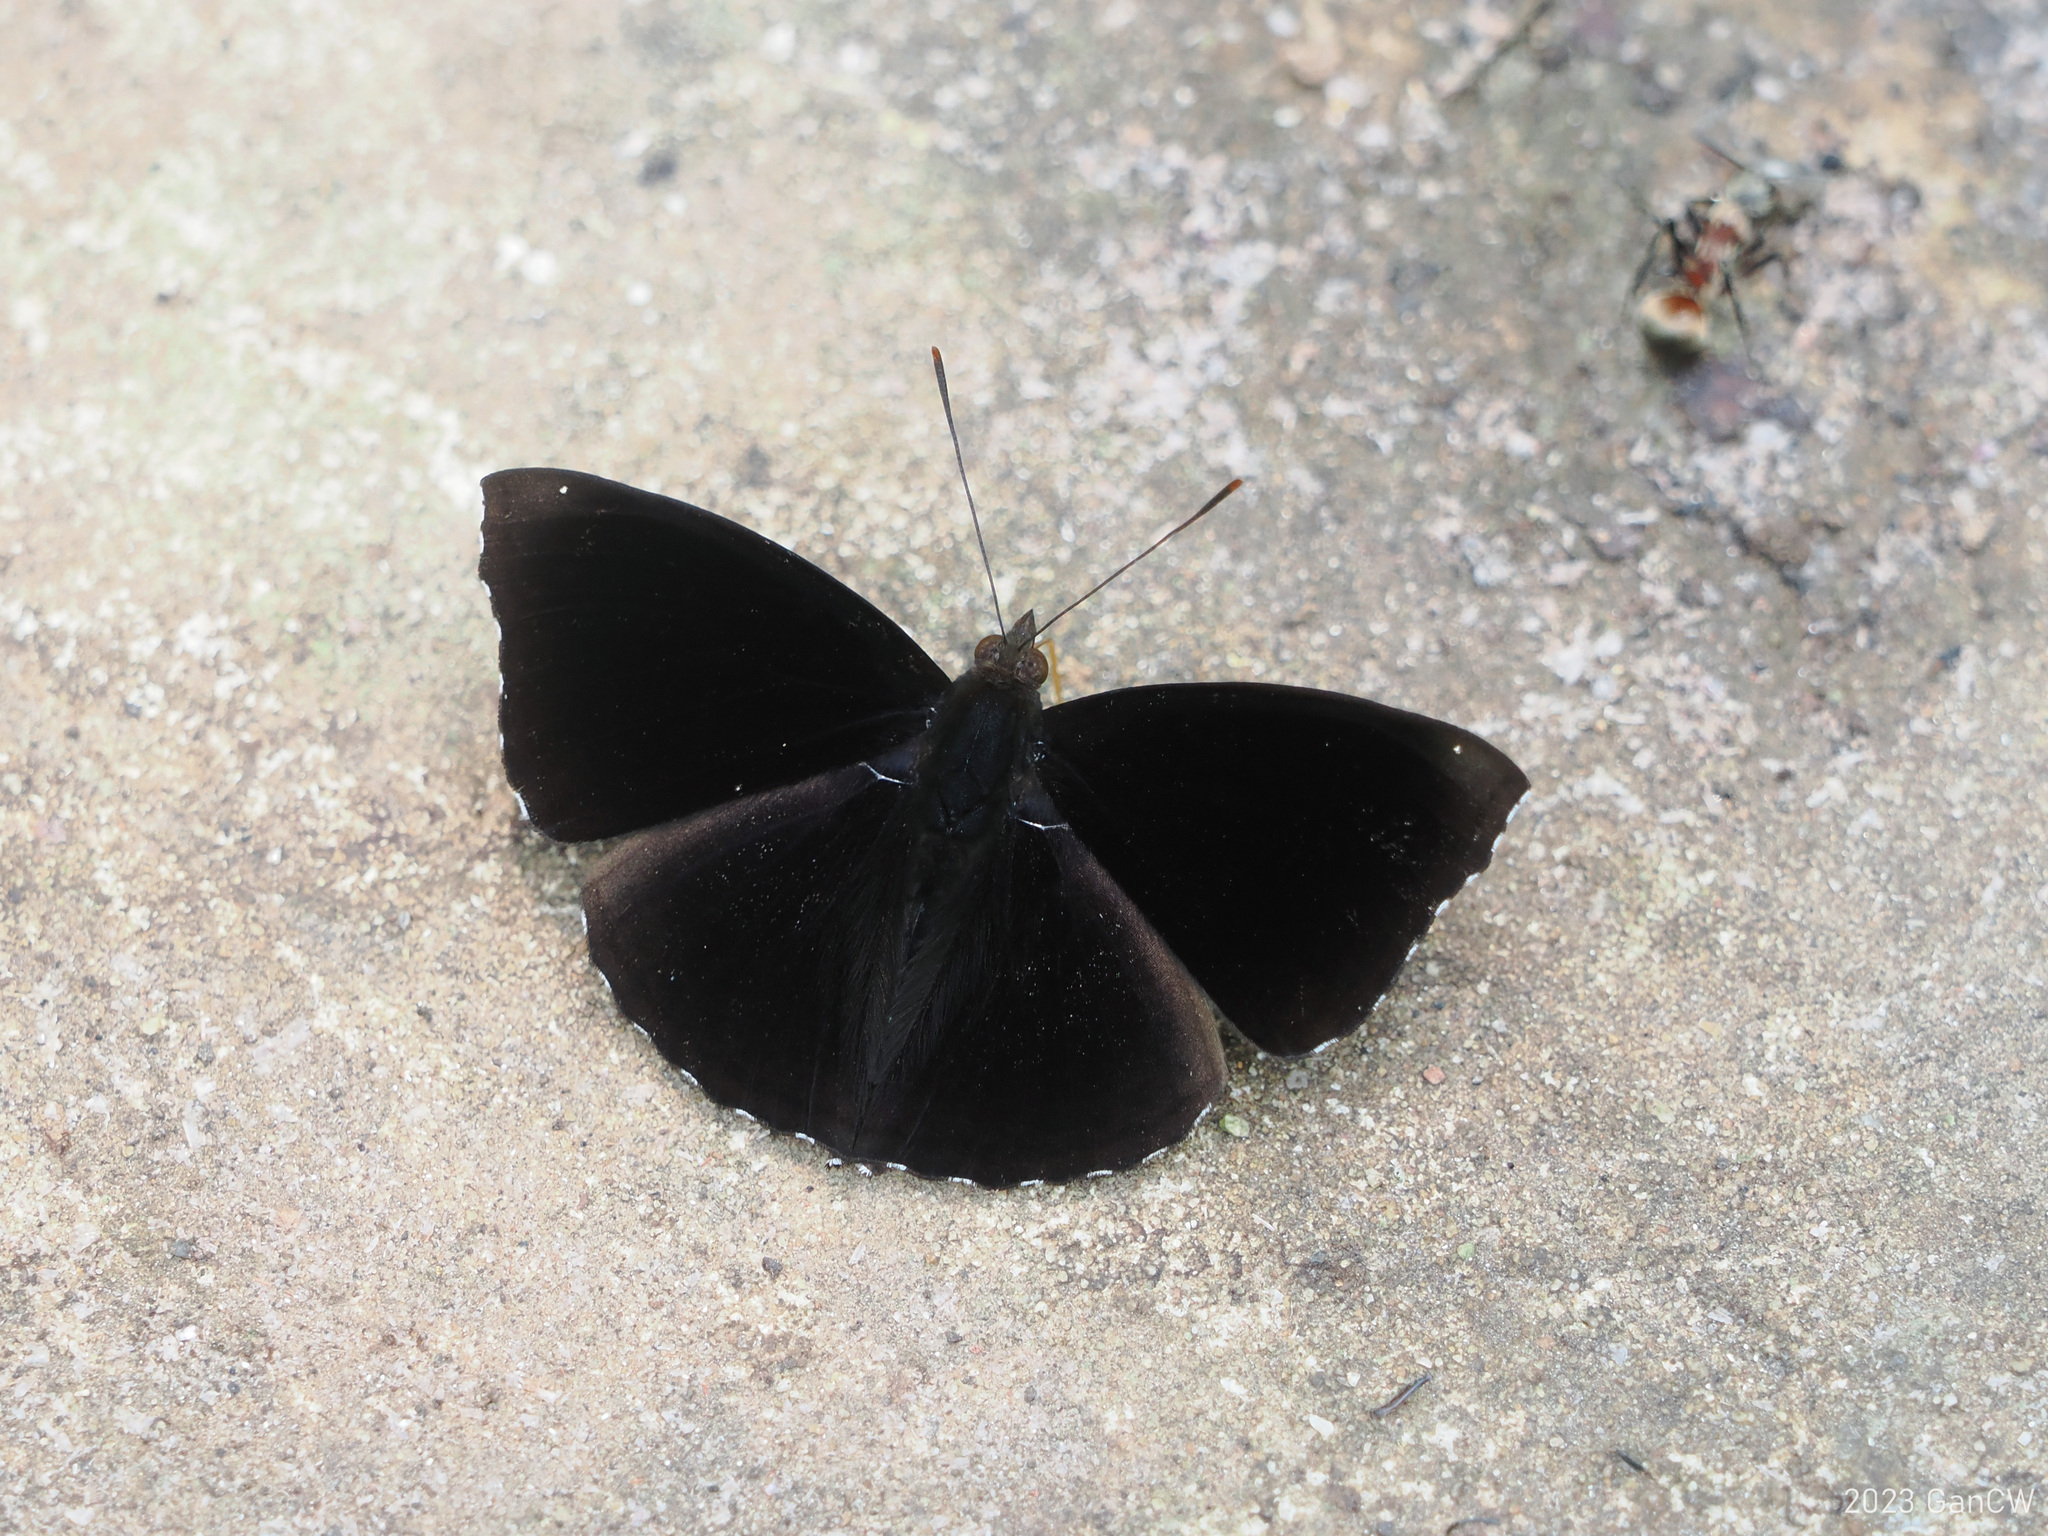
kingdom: Animalia
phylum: Arthropoda
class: Insecta
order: Lepidoptera
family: Nymphalidae
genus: Apatura
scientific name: Apatura Rohana spec
